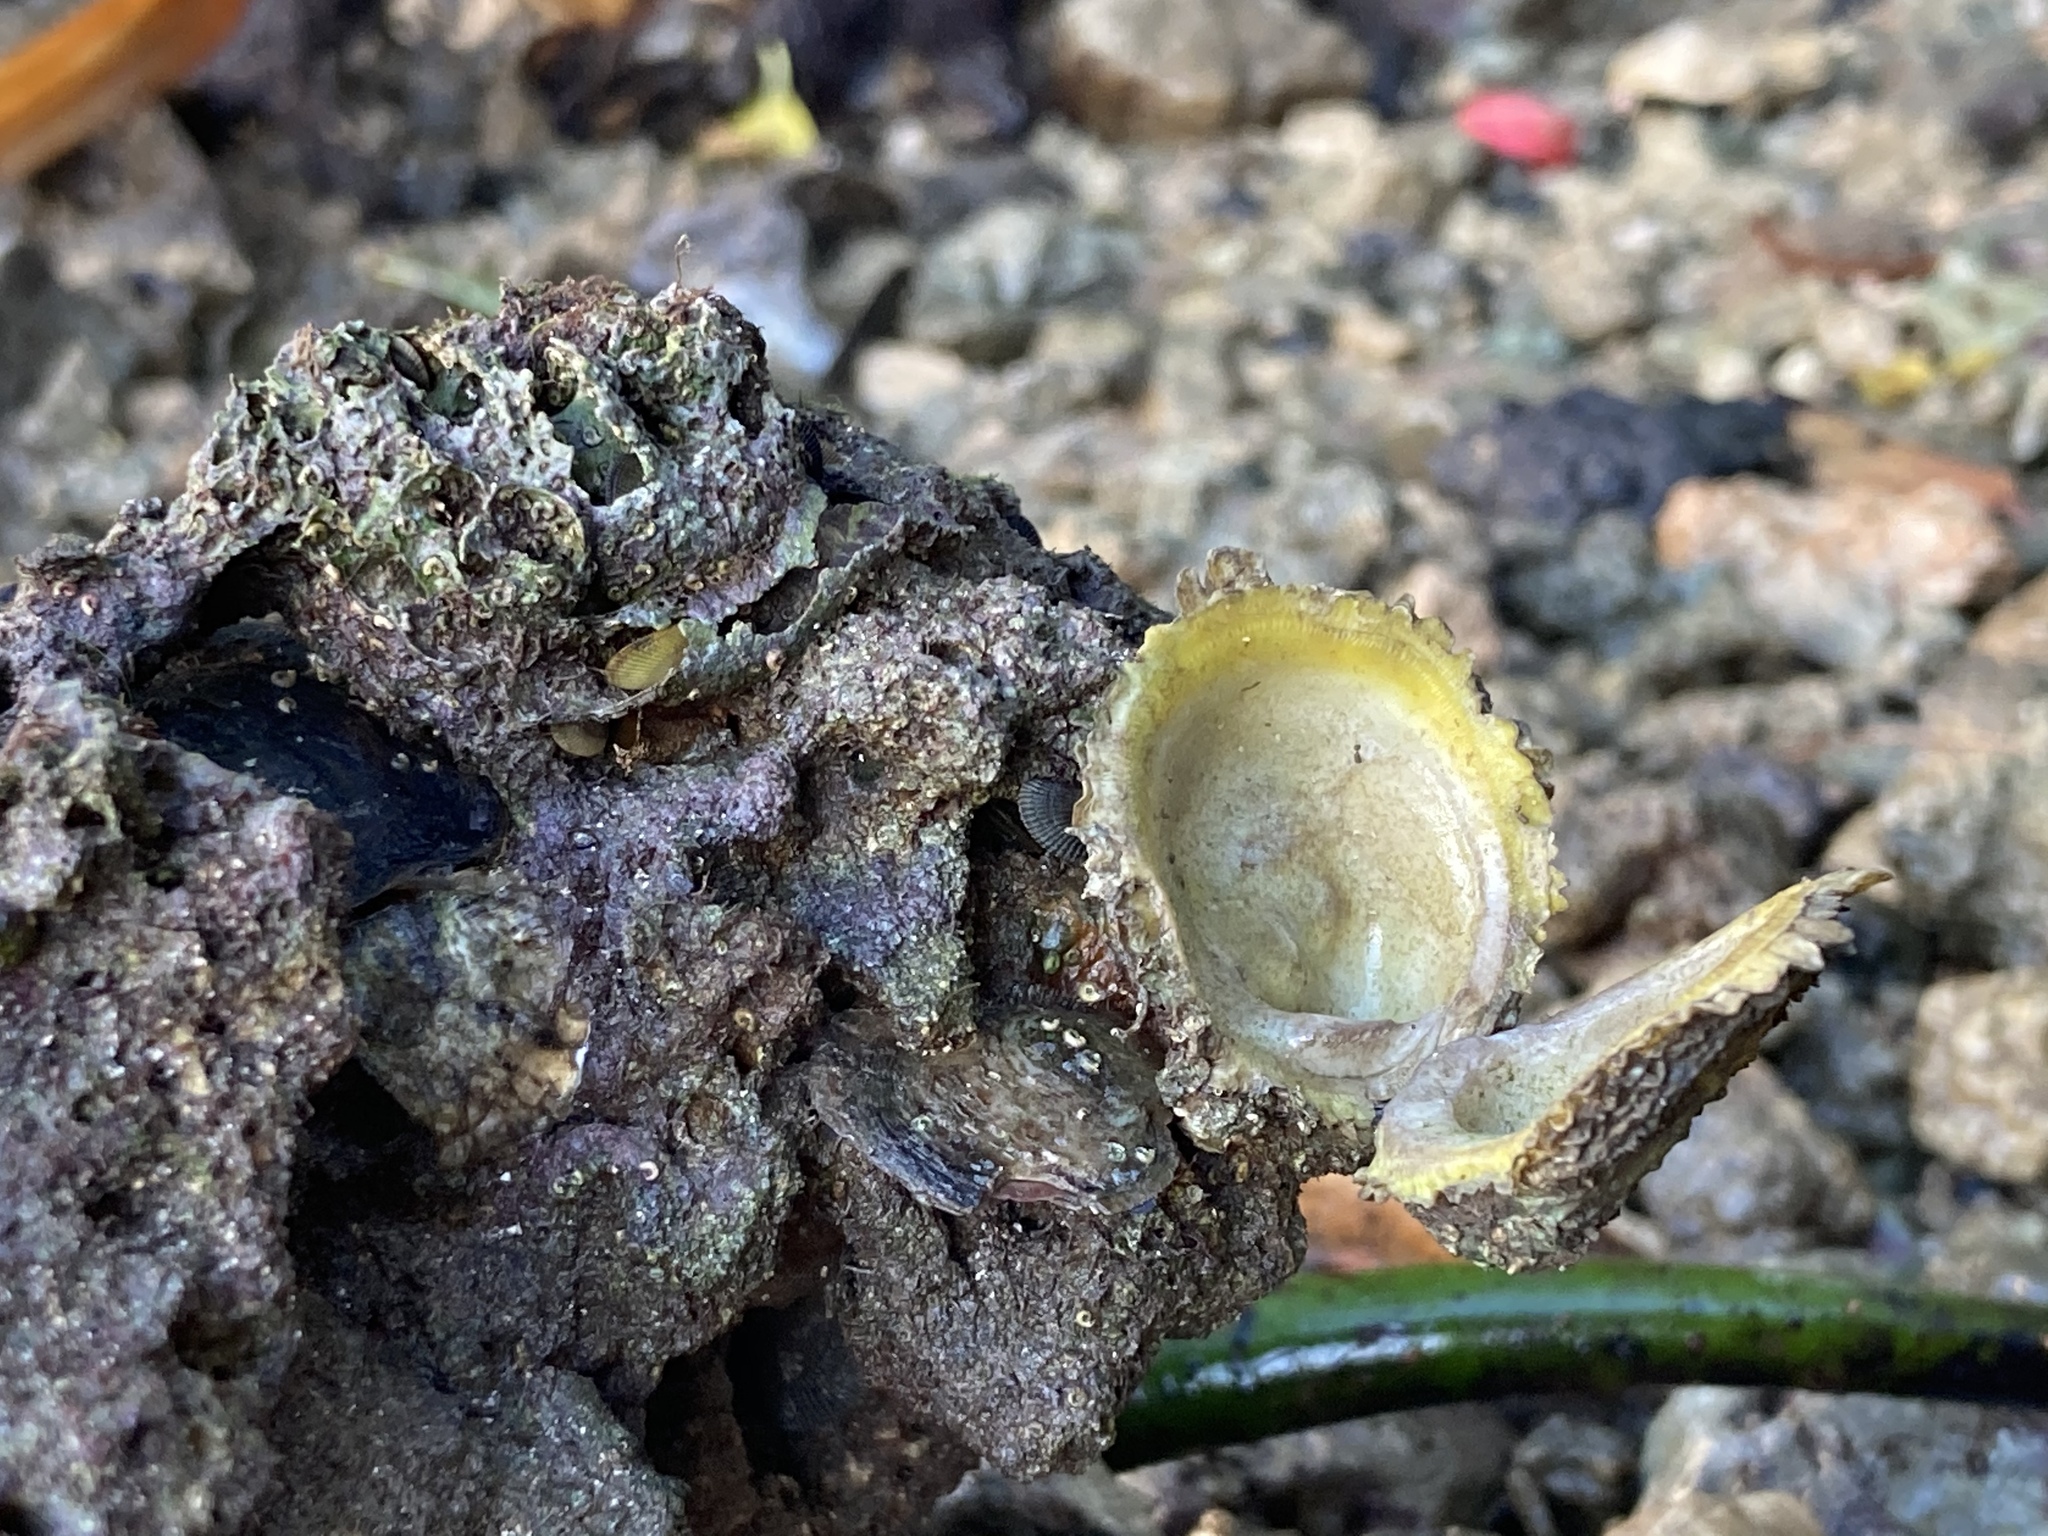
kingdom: Animalia
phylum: Mollusca
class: Bivalvia
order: Venerida
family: Chamidae
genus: Chama
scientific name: Chama macerophylla
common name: Leafy jewelbox
